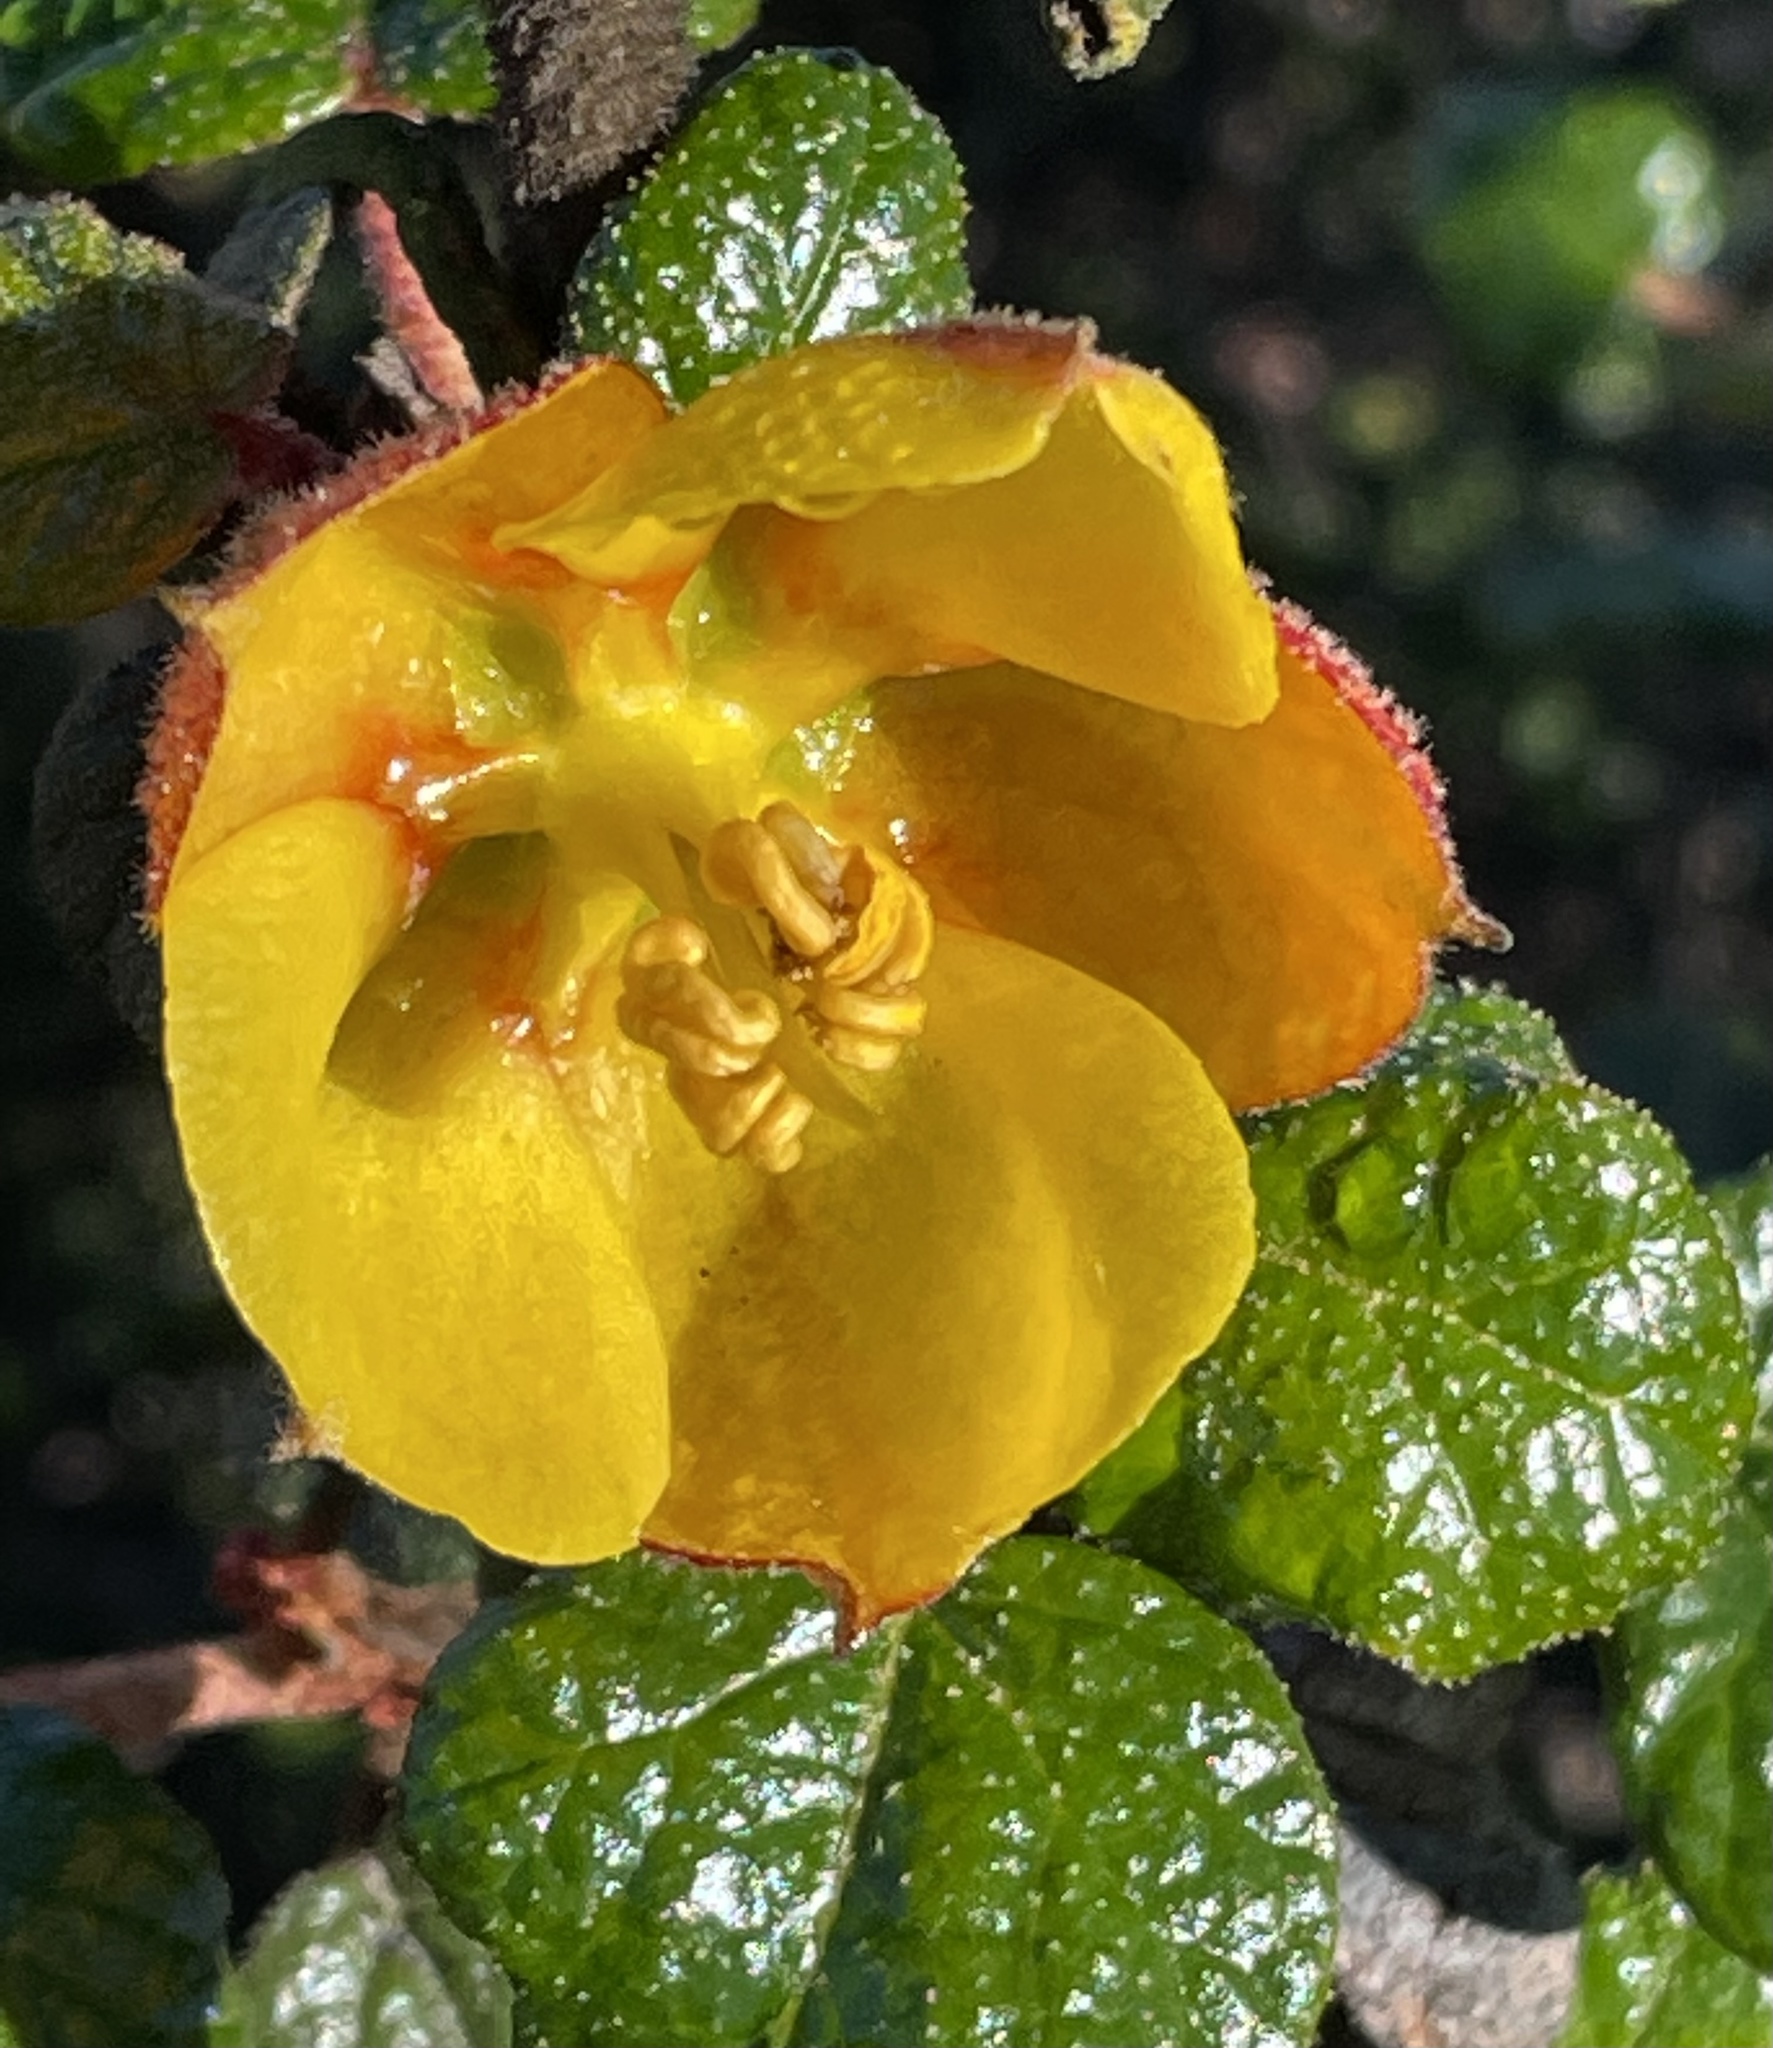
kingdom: Plantae
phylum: Tracheophyta
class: Magnoliopsida
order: Malvales
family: Malvaceae
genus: Fremontodendron
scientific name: Fremontodendron californicum
